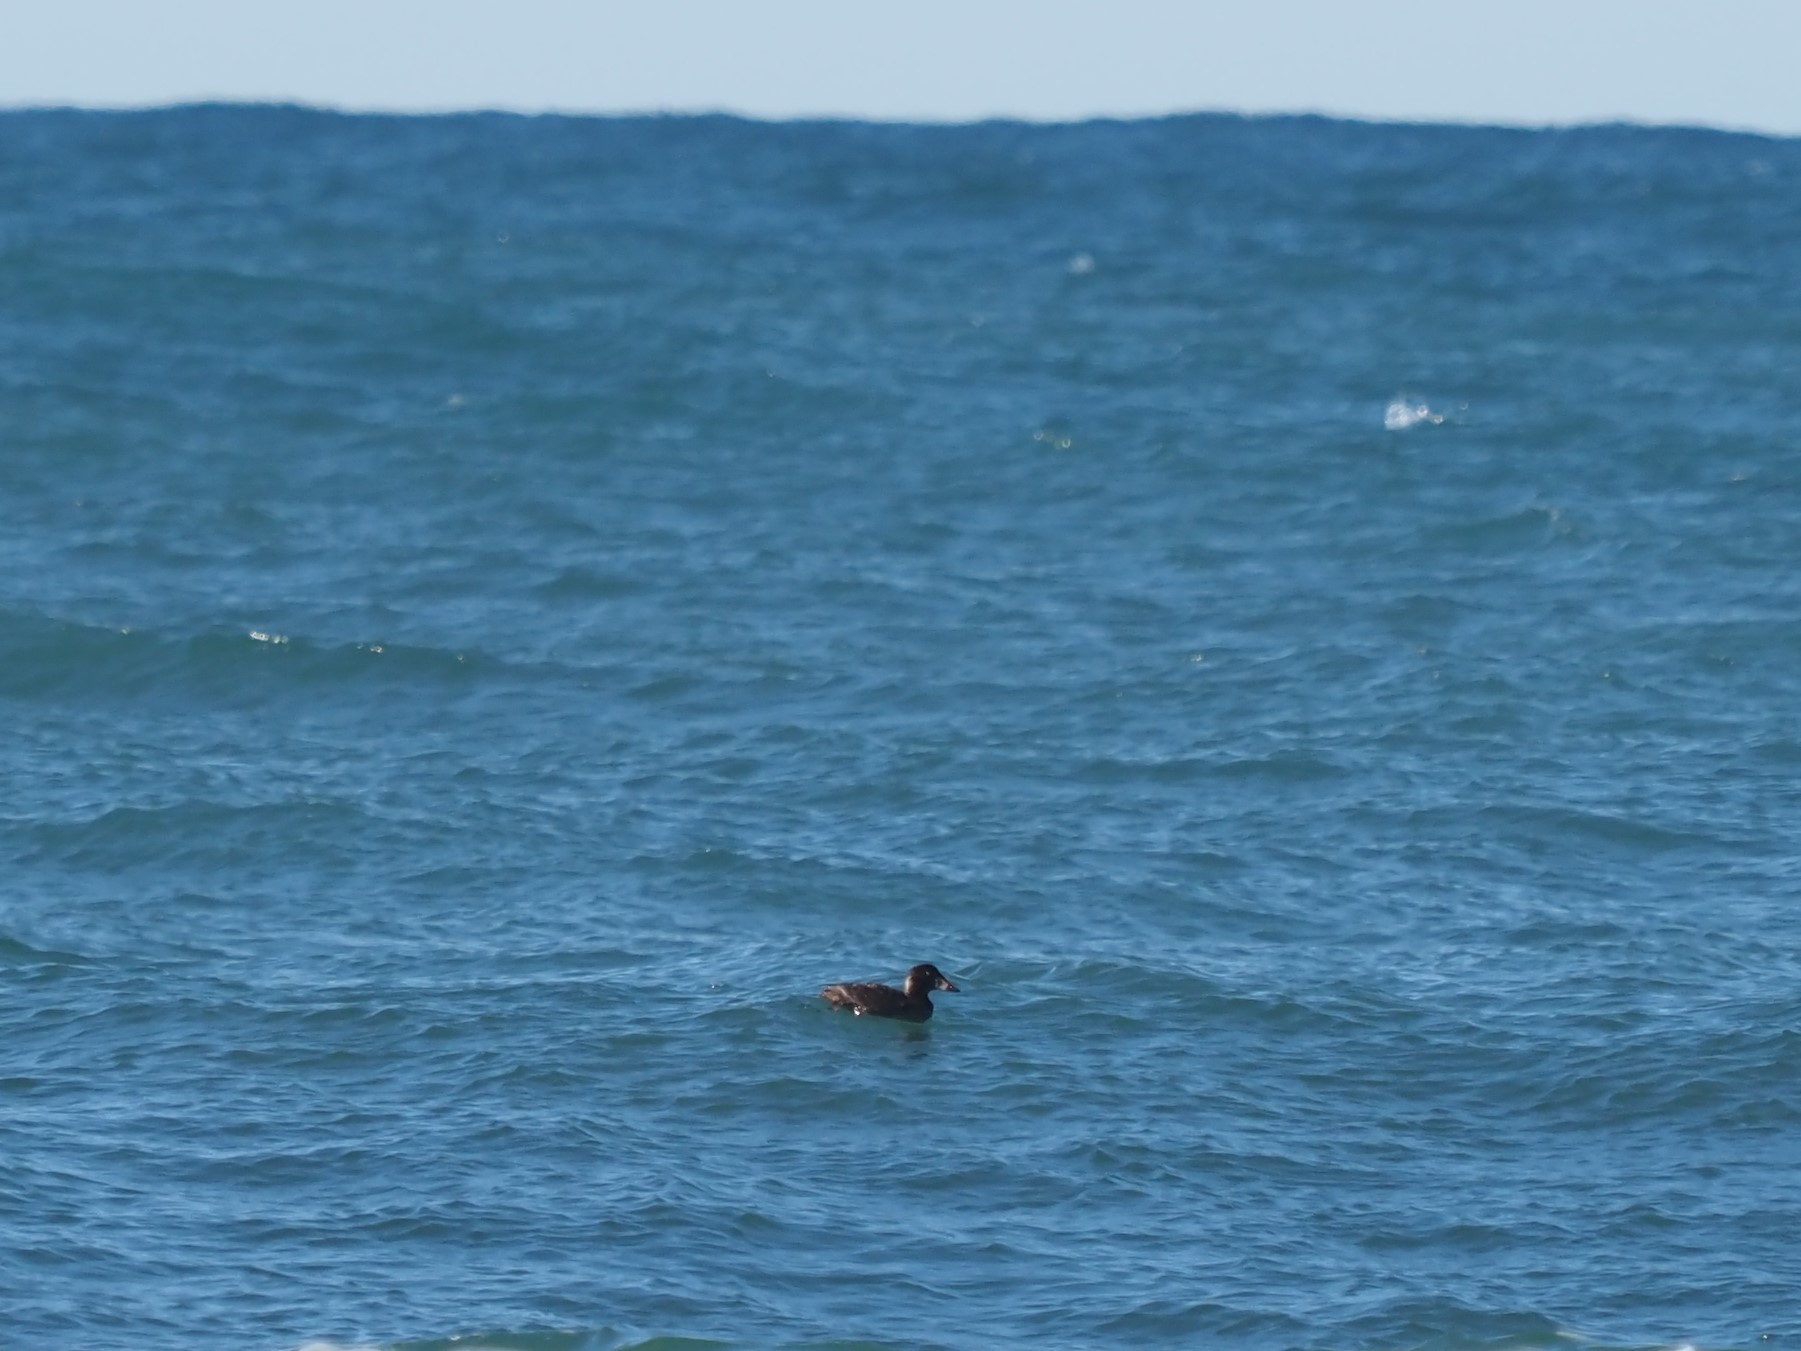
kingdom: Animalia
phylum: Chordata
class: Aves
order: Anseriformes
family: Anatidae
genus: Melanitta
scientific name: Melanitta perspicillata
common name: Surf scoter
